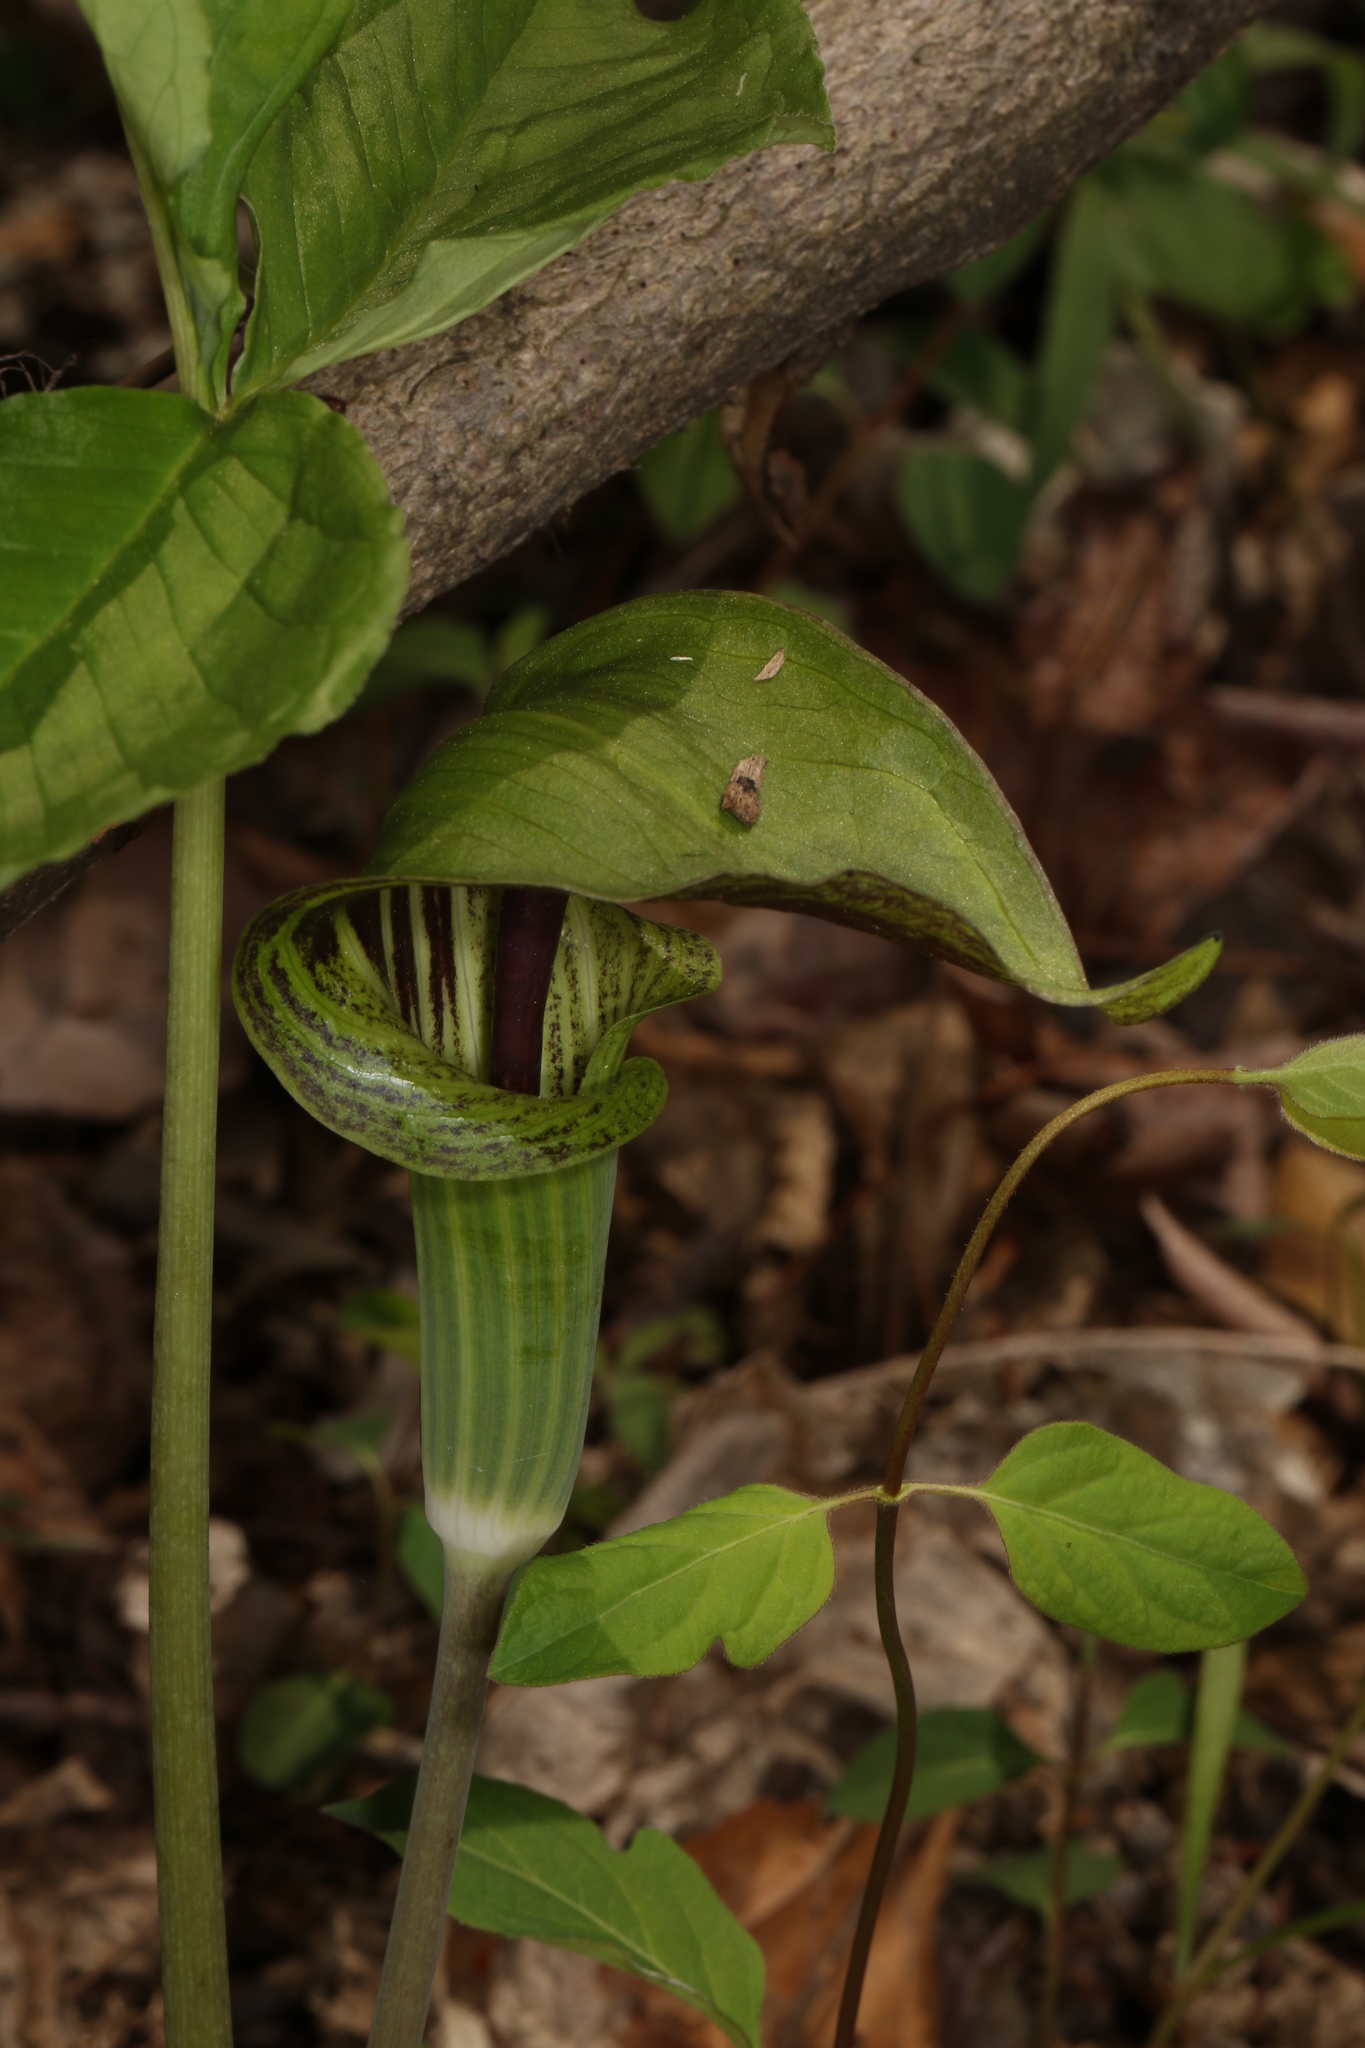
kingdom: Plantae
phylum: Tracheophyta
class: Liliopsida
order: Alismatales
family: Araceae
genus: Arisaema
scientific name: Arisaema triphyllum
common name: Jack-in-the-pulpit
